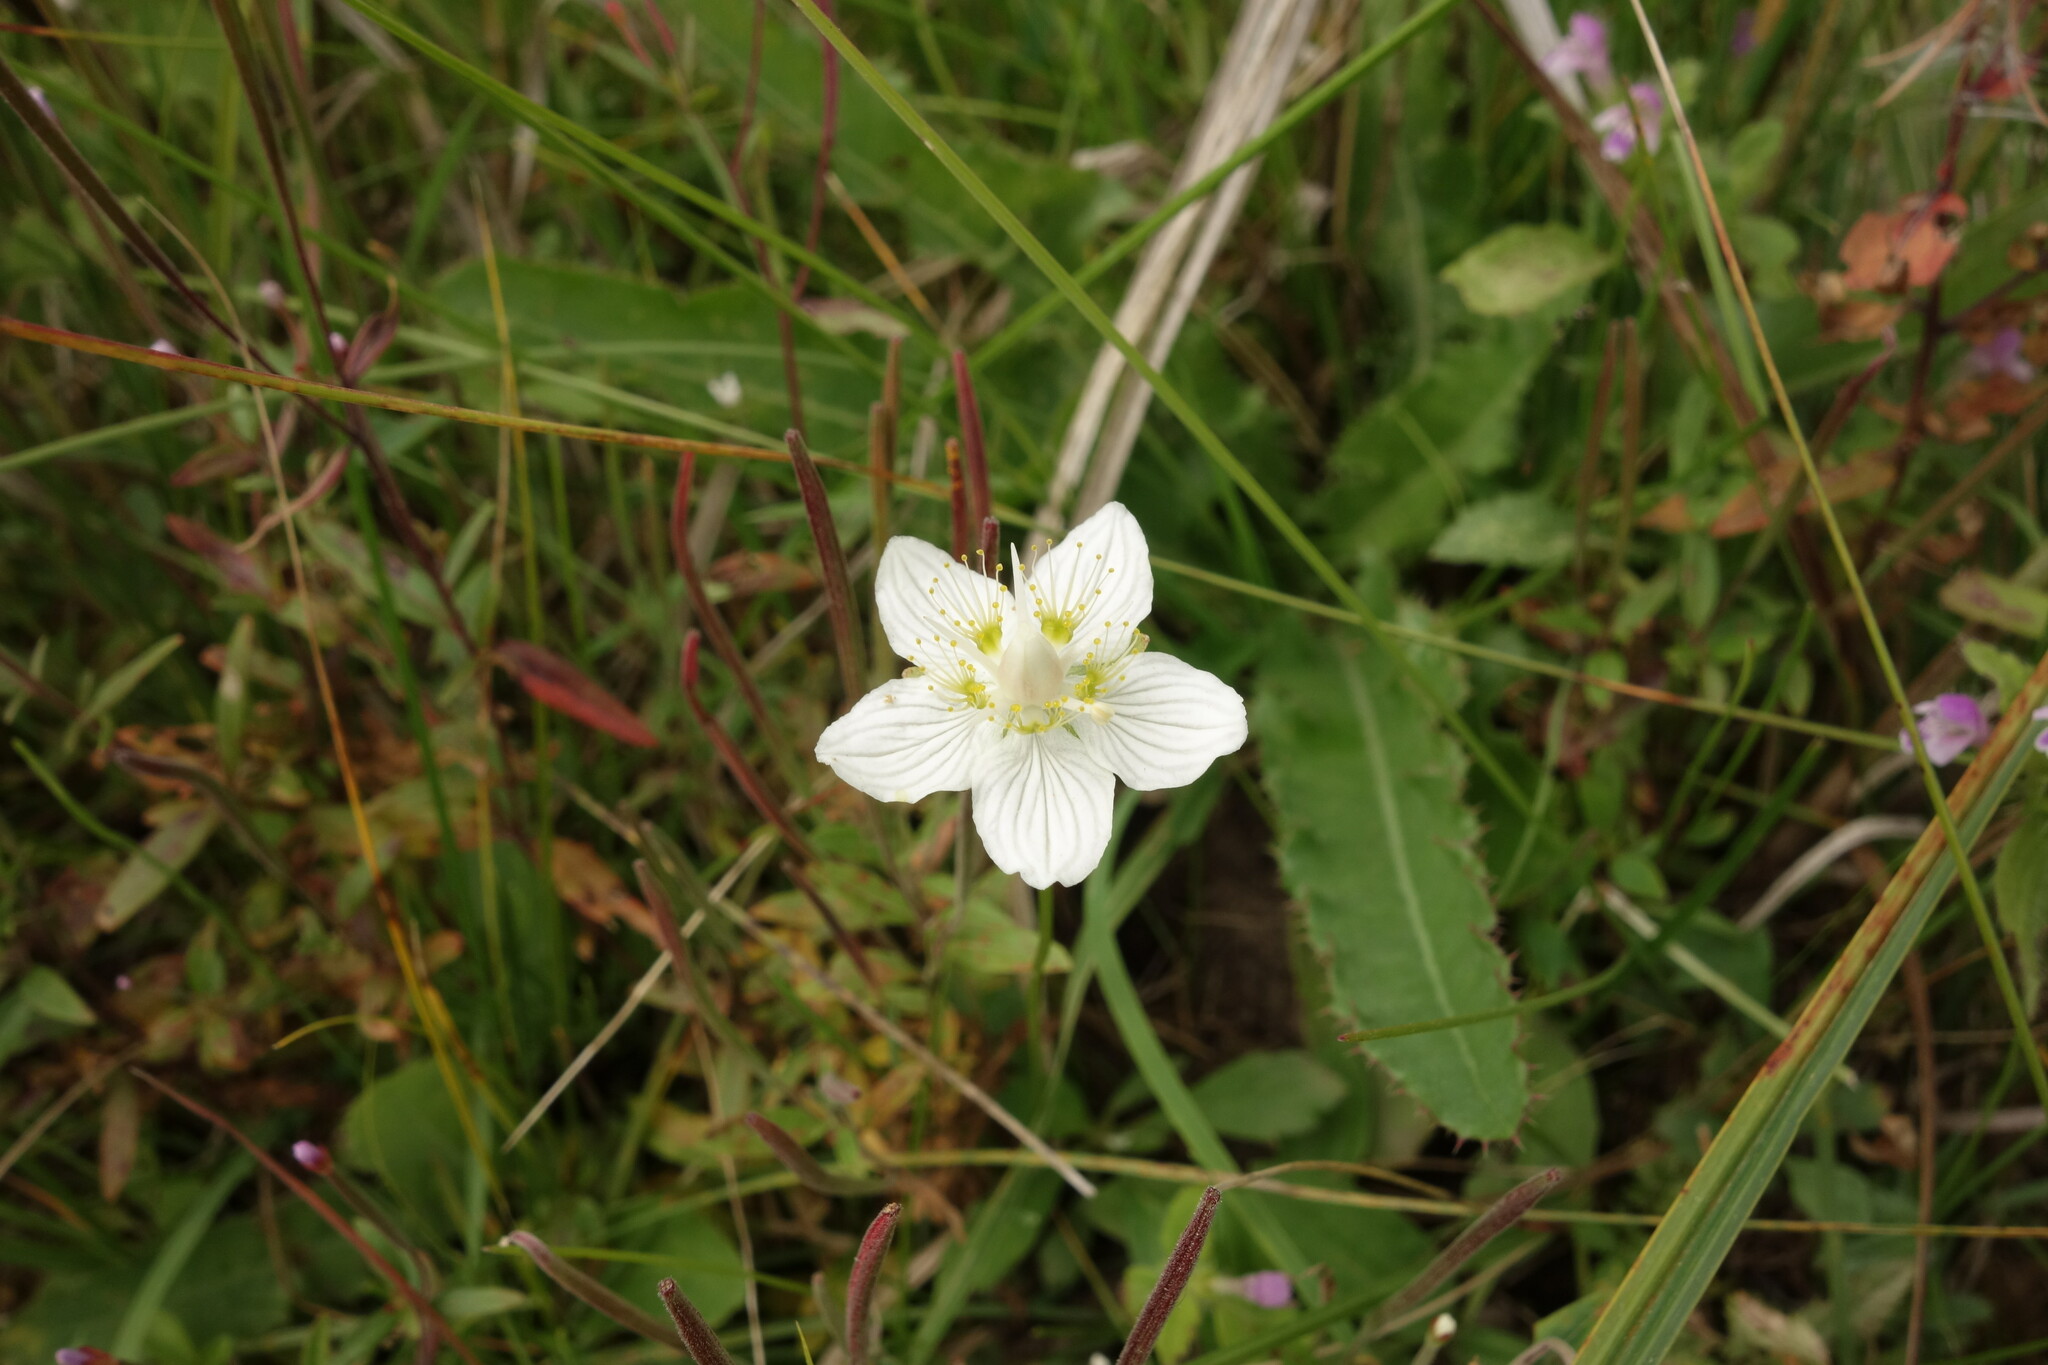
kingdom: Plantae
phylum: Tracheophyta
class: Magnoliopsida
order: Celastrales
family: Parnassiaceae
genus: Parnassia
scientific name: Parnassia palustris
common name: Grass-of-parnassus
